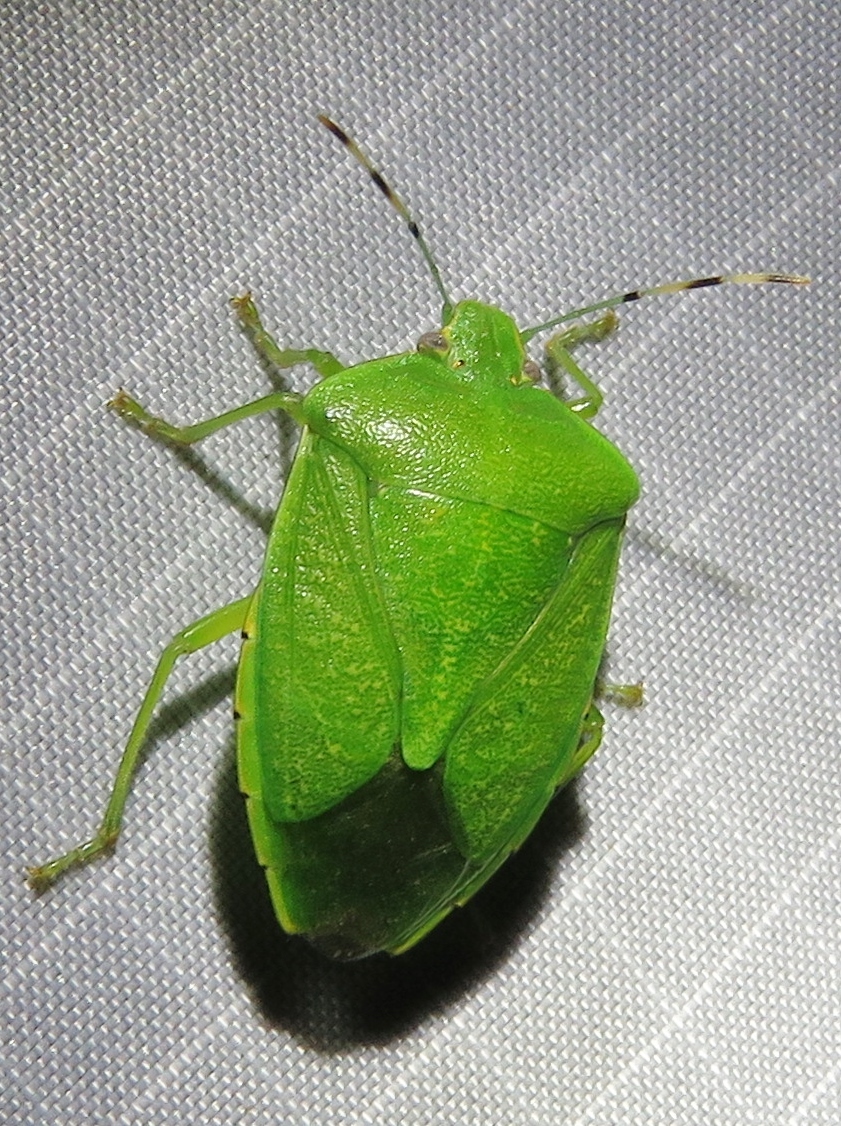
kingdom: Animalia
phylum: Arthropoda
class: Insecta
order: Hemiptera
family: Pentatomidae
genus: Chinavia
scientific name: Chinavia hilaris
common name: Green stink bug
